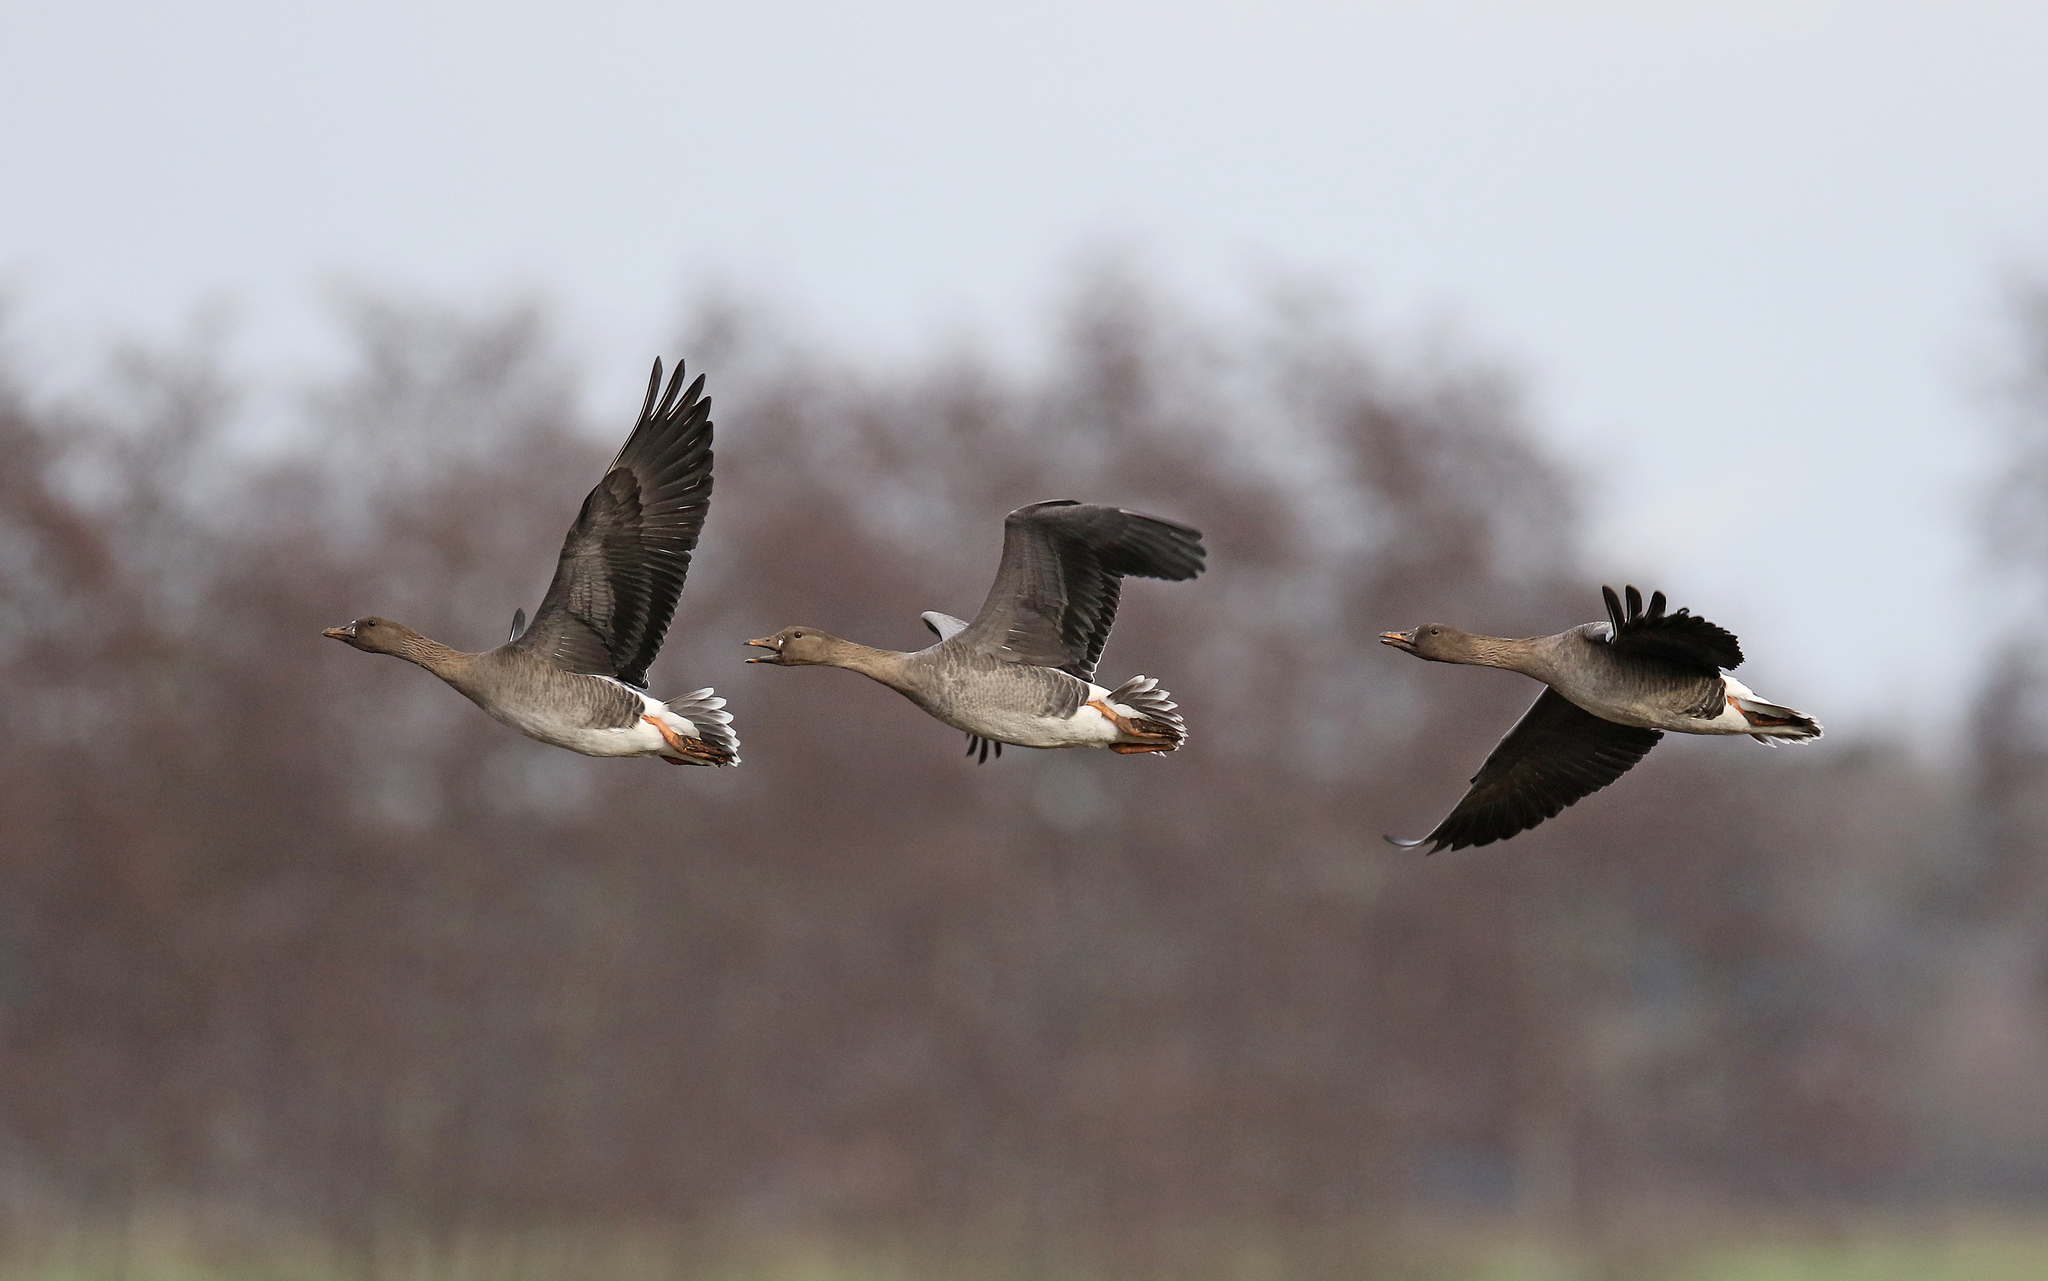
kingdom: Animalia
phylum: Chordata
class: Aves
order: Anseriformes
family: Anatidae
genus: Anser
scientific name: Anser serrirostris
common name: Tundra bean goose
